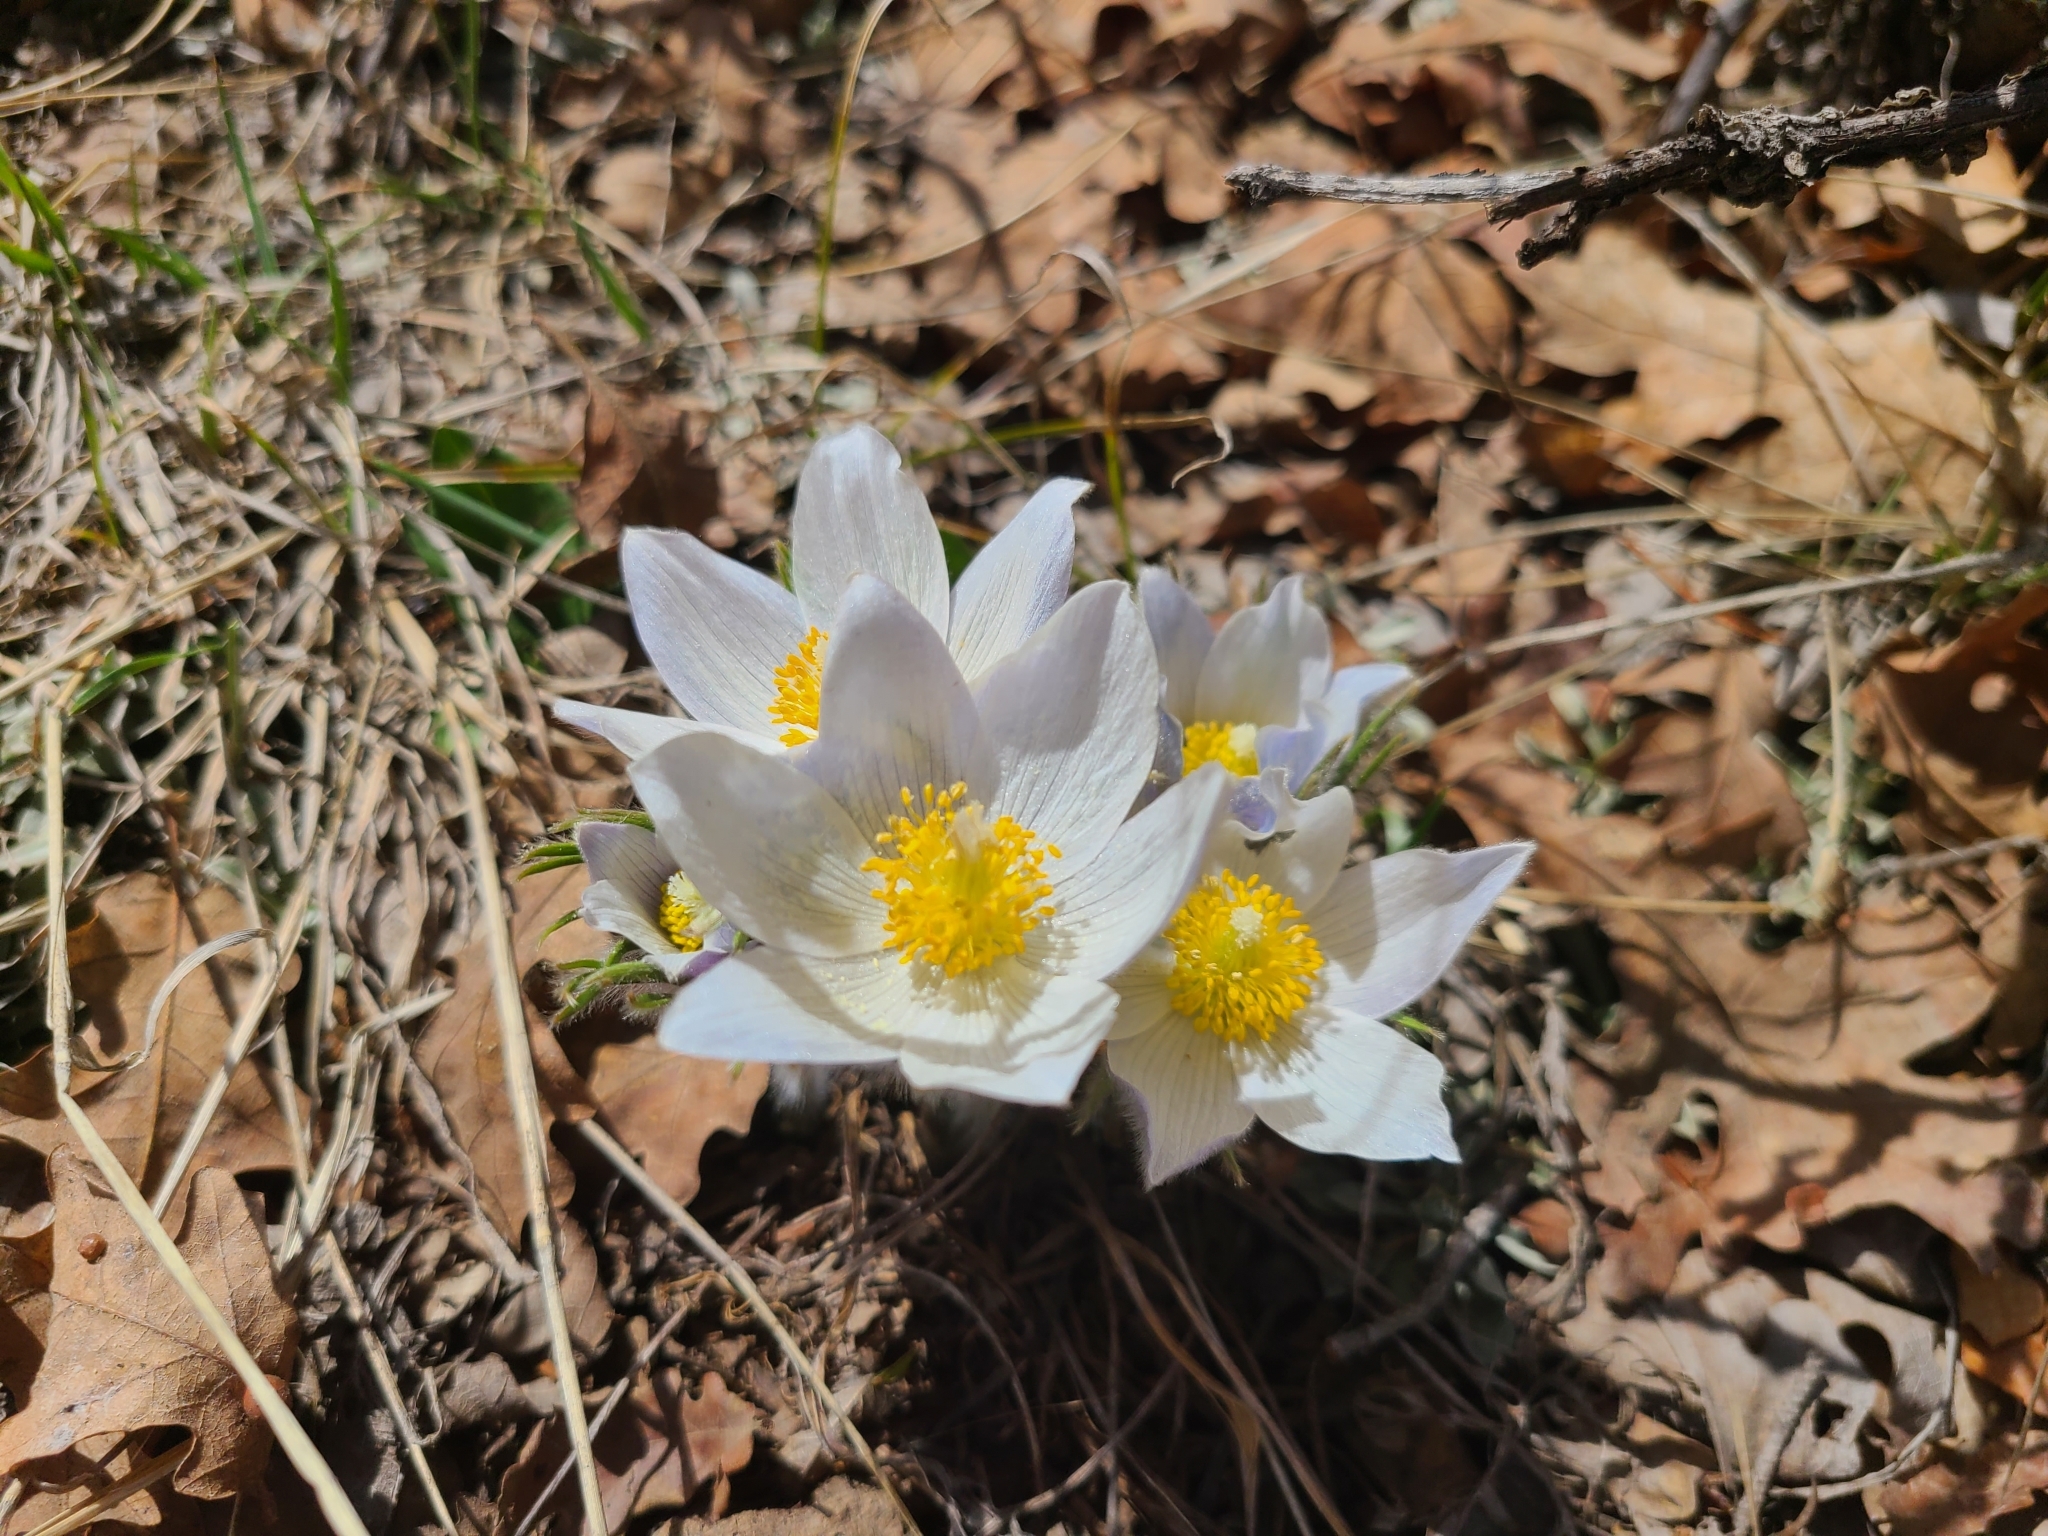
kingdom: Plantae
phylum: Tracheophyta
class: Magnoliopsida
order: Ranunculales
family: Ranunculaceae
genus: Pulsatilla
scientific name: Pulsatilla nuttalliana
